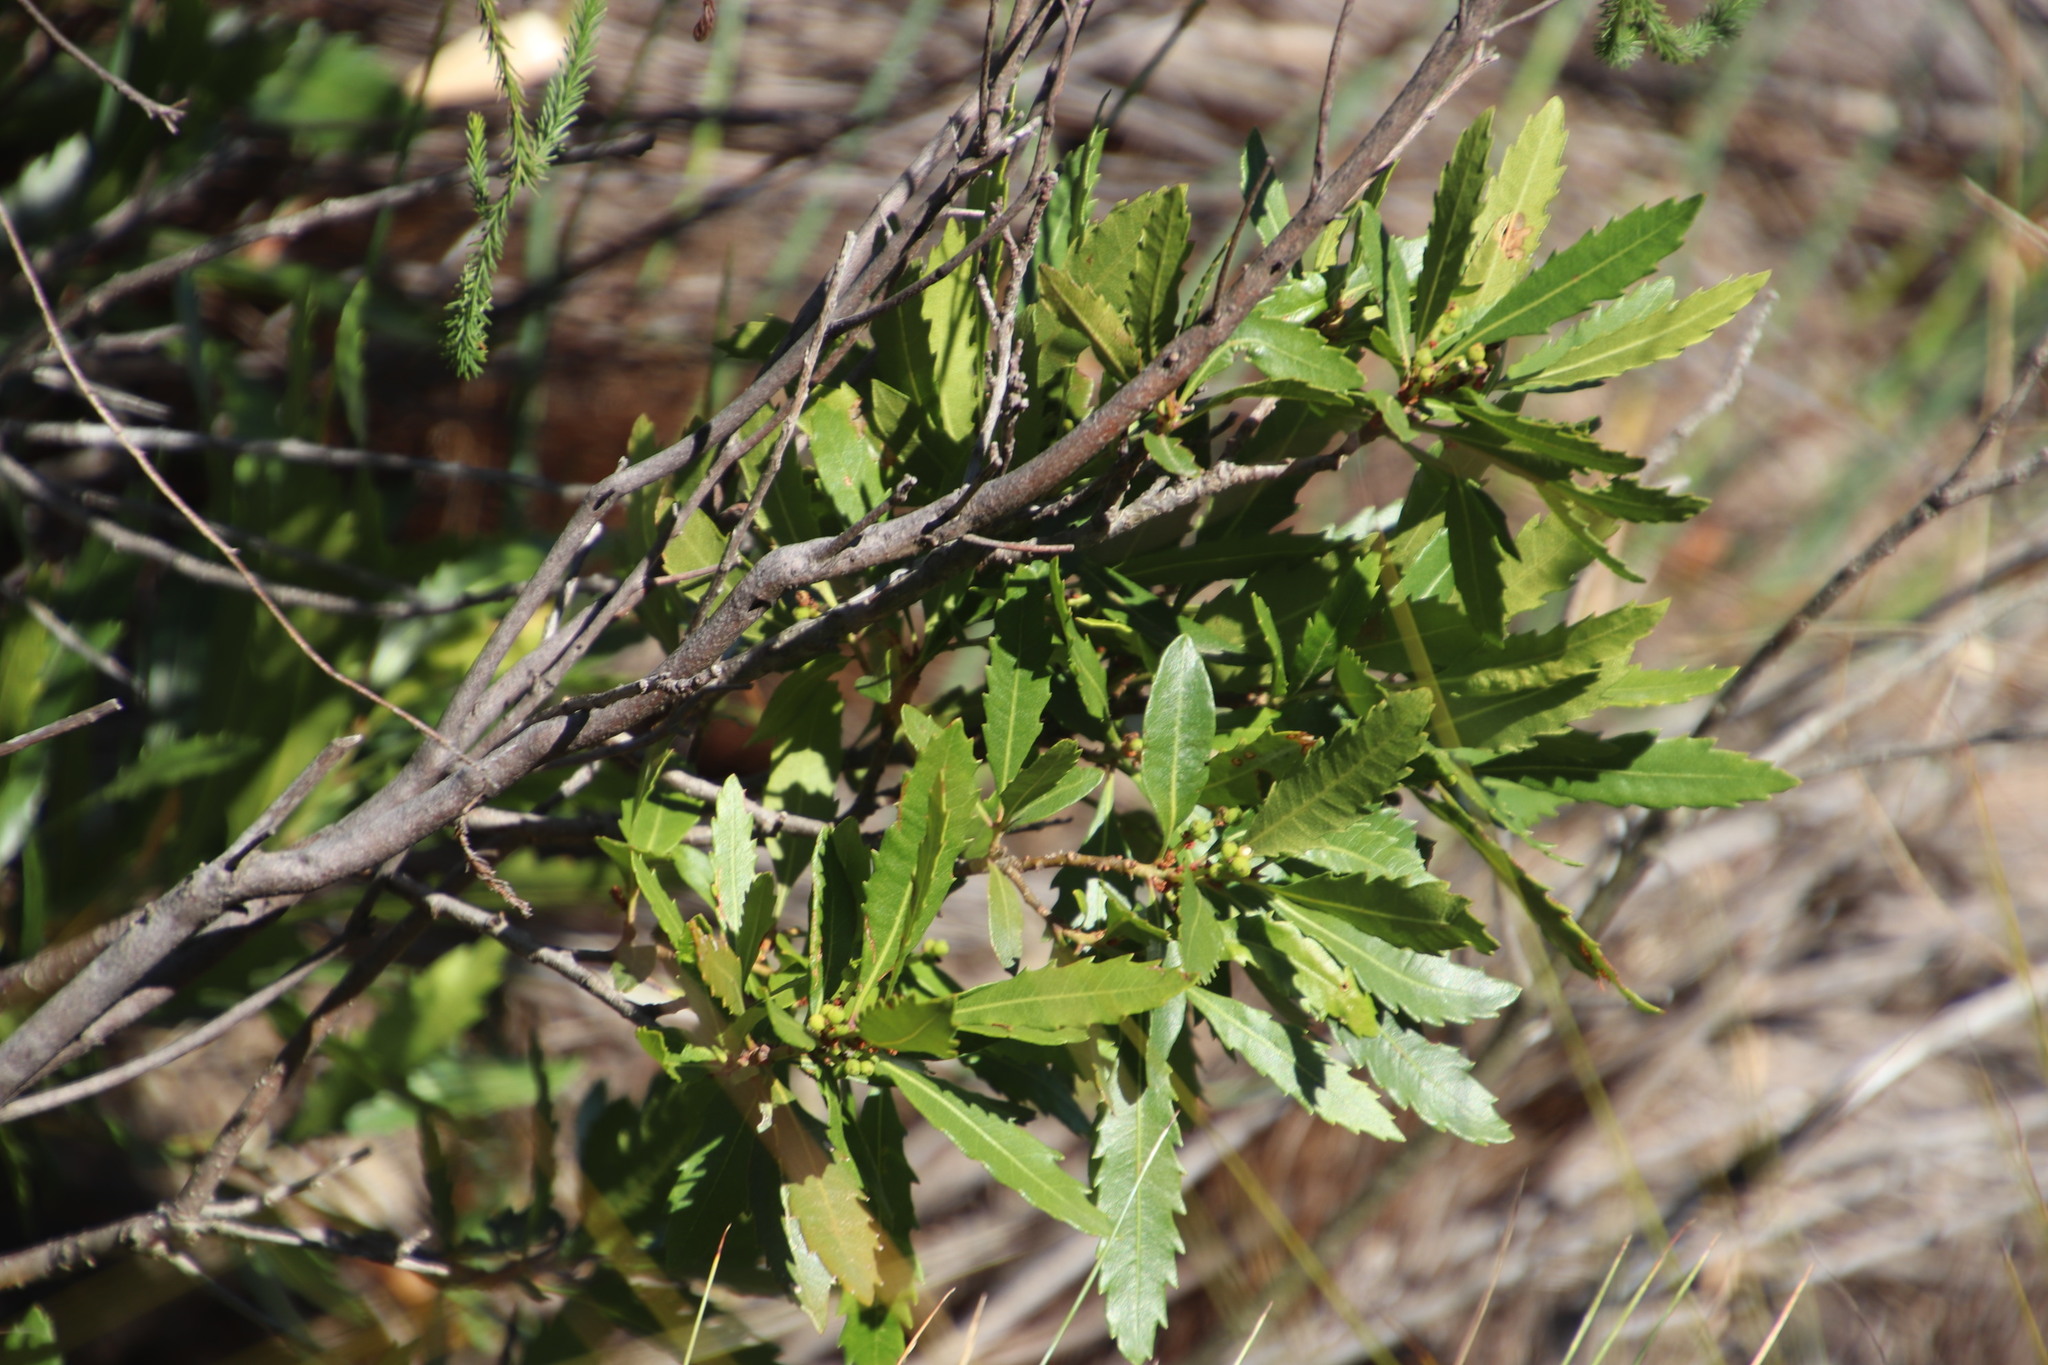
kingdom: Plantae
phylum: Tracheophyta
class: Magnoliopsida
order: Fagales
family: Myricaceae
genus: Morella
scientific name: Morella serrata
